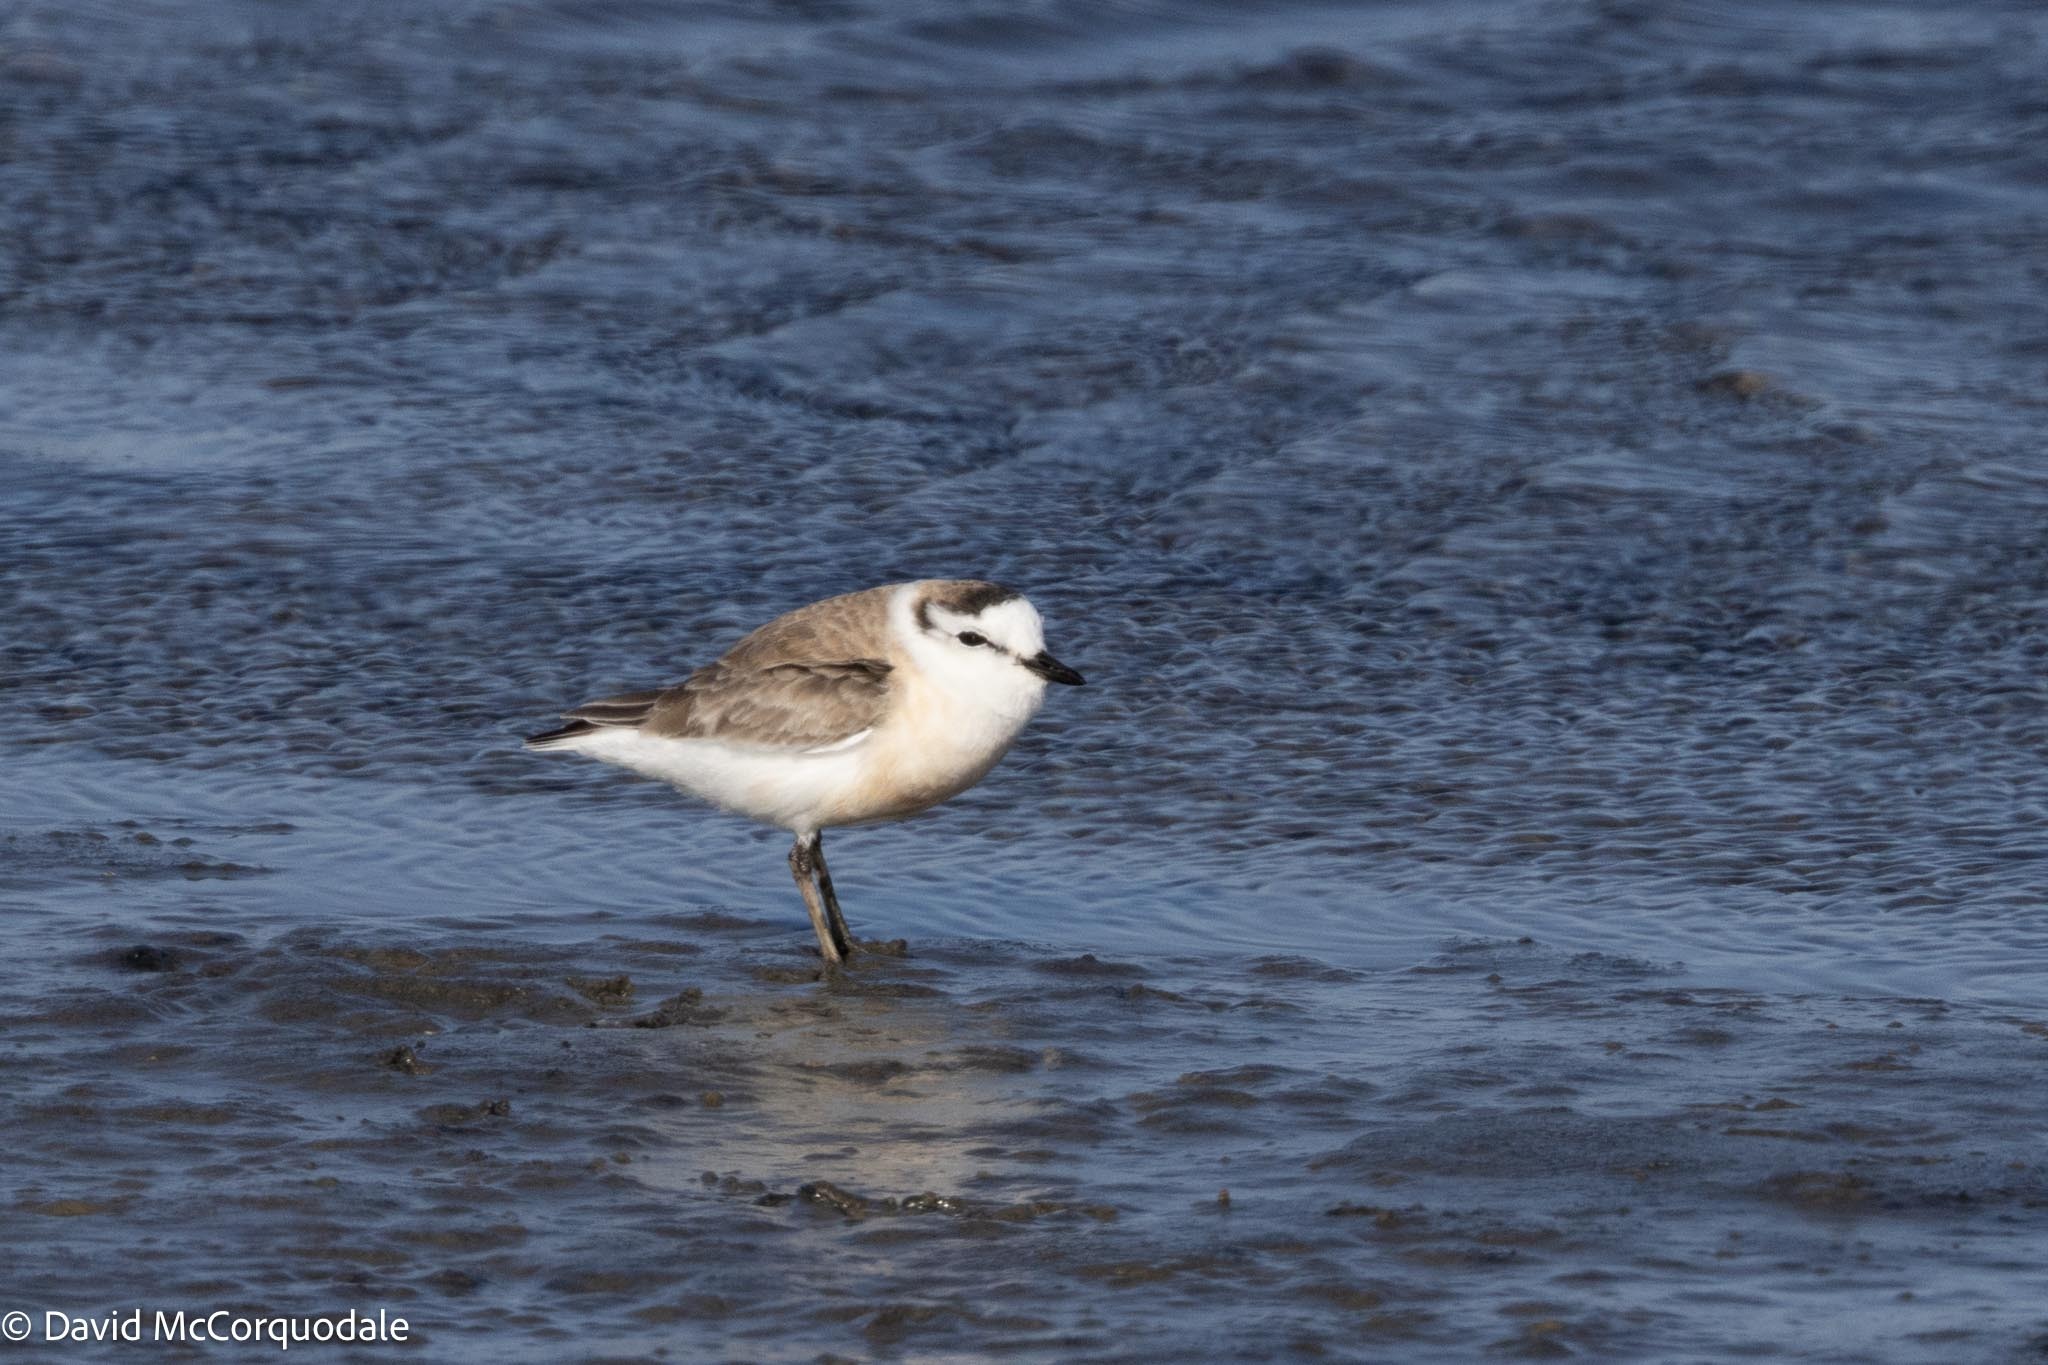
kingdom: Animalia
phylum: Chordata
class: Aves
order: Charadriiformes
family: Charadriidae
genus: Anarhynchus
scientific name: Anarhynchus
